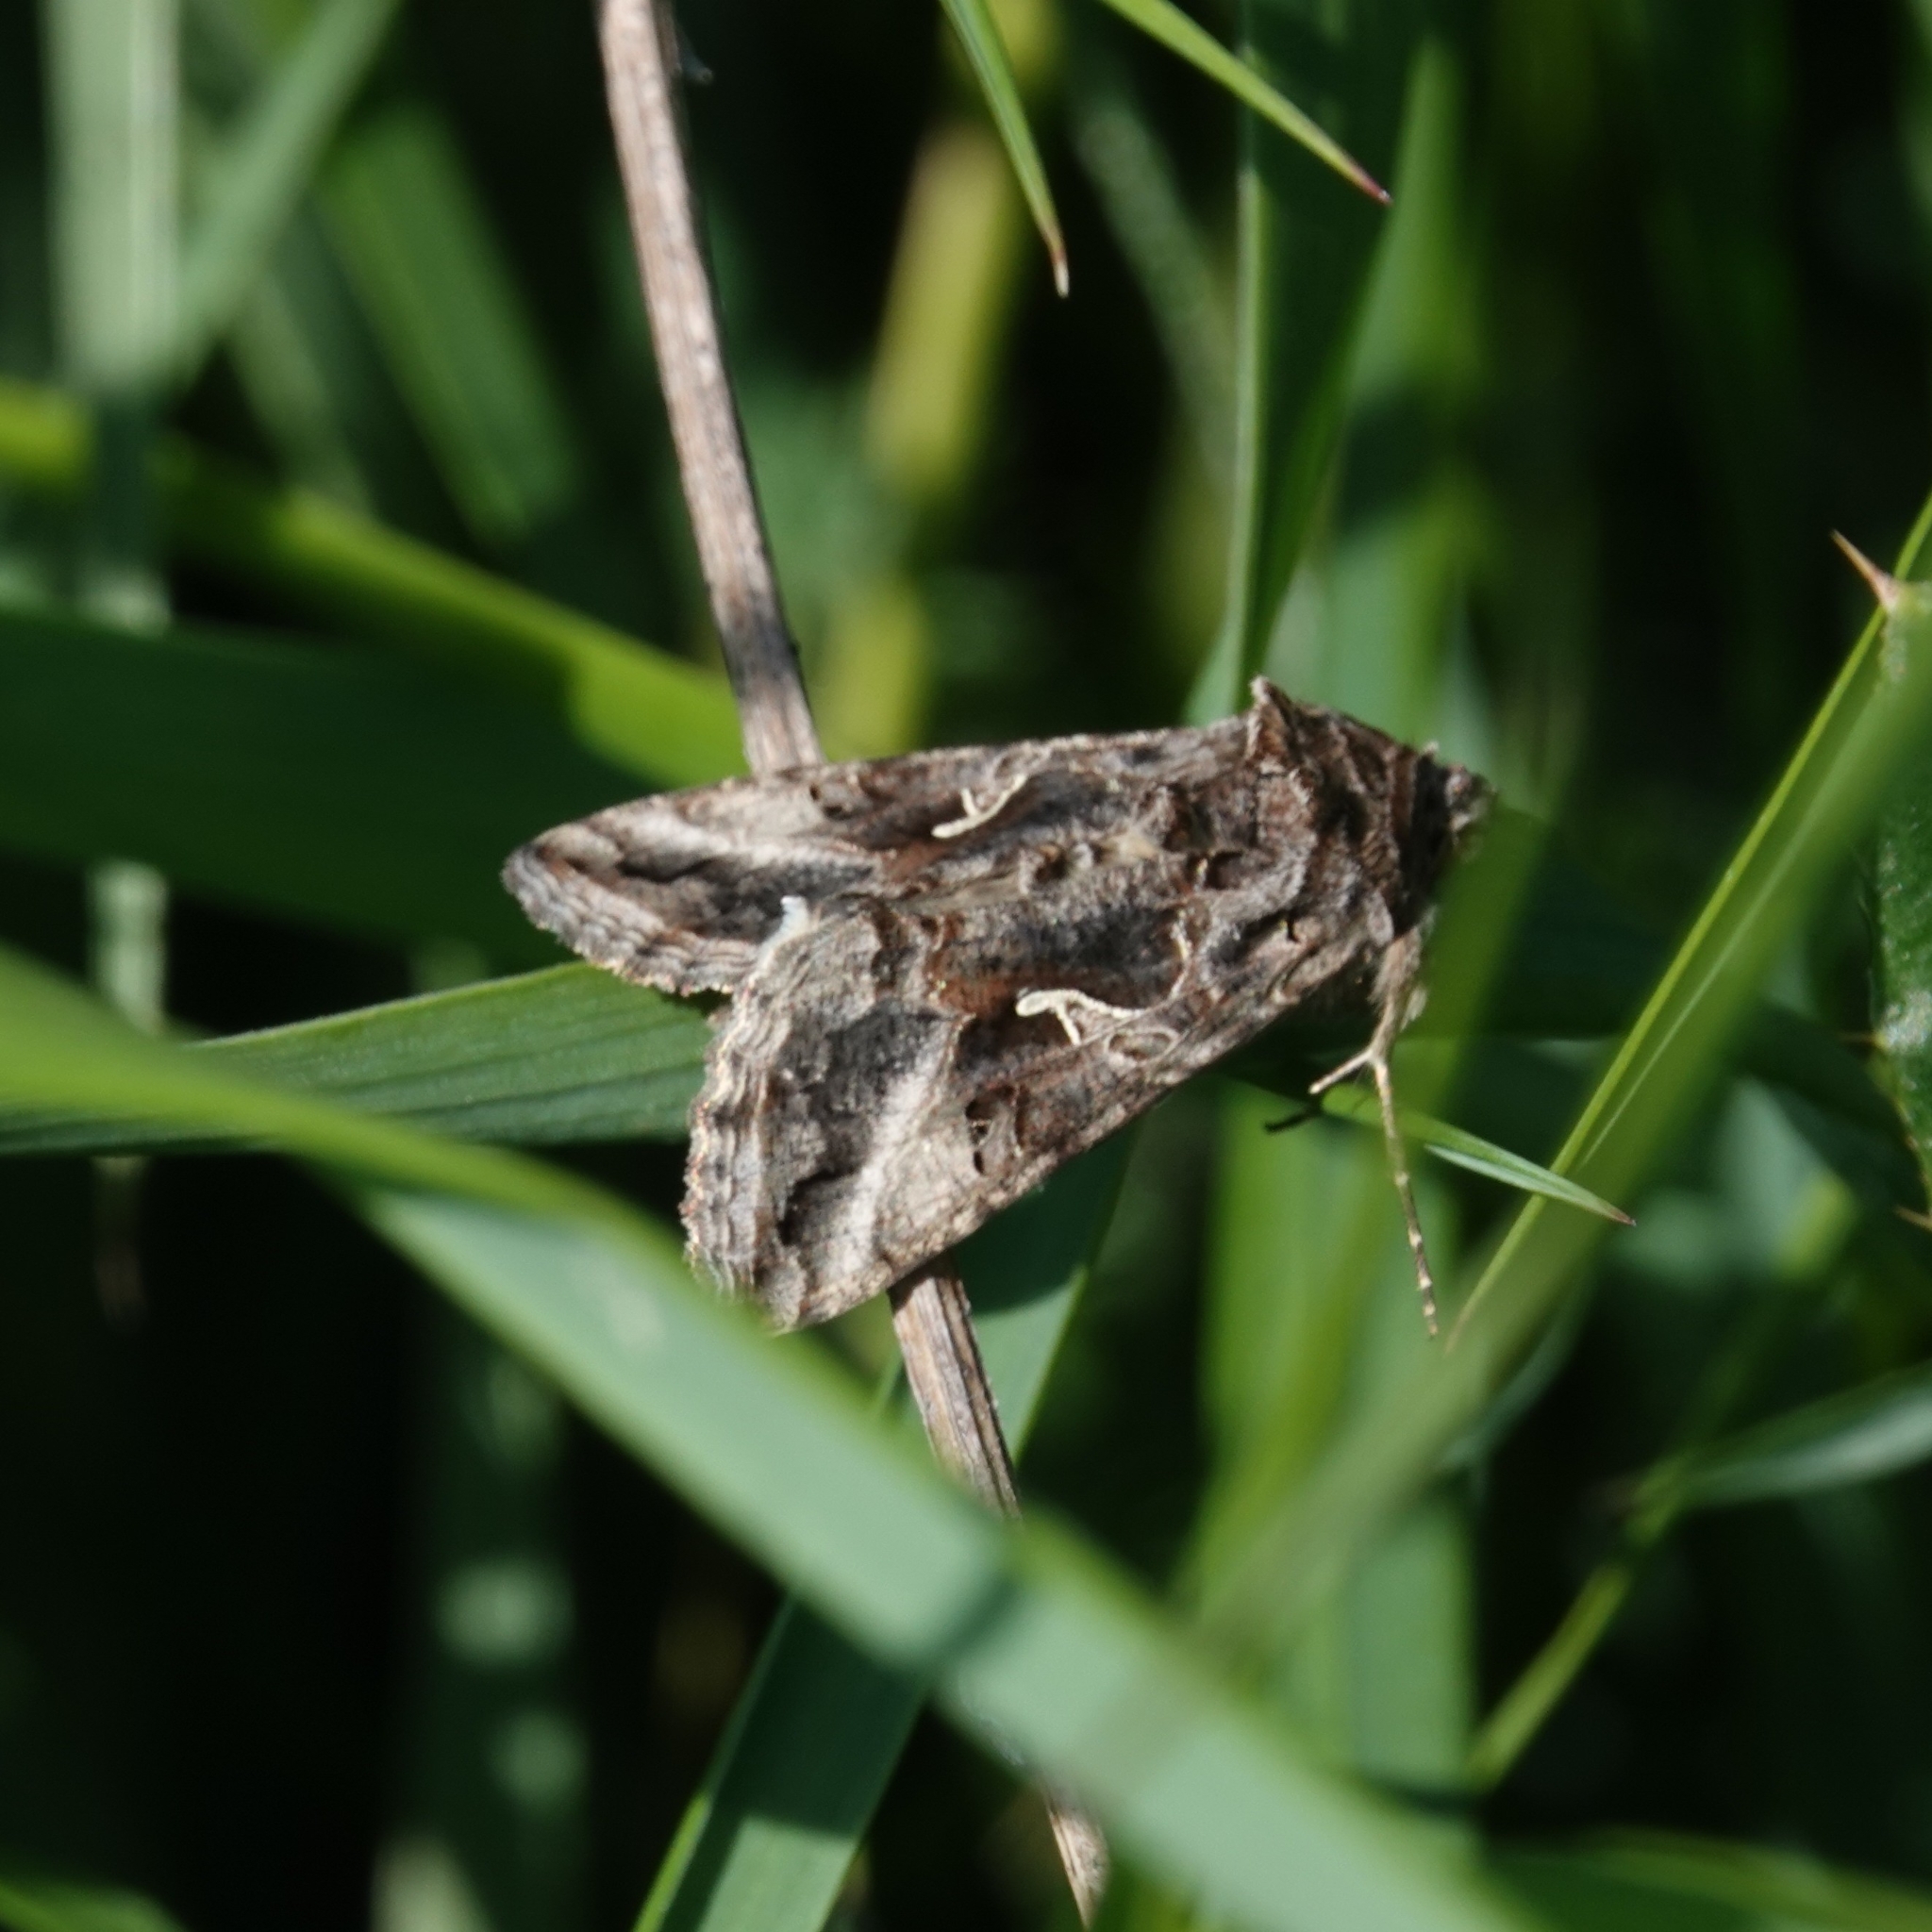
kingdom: Animalia
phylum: Arthropoda
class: Insecta
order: Lepidoptera
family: Noctuidae
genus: Autographa
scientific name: Autographa gamma
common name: Silver y
